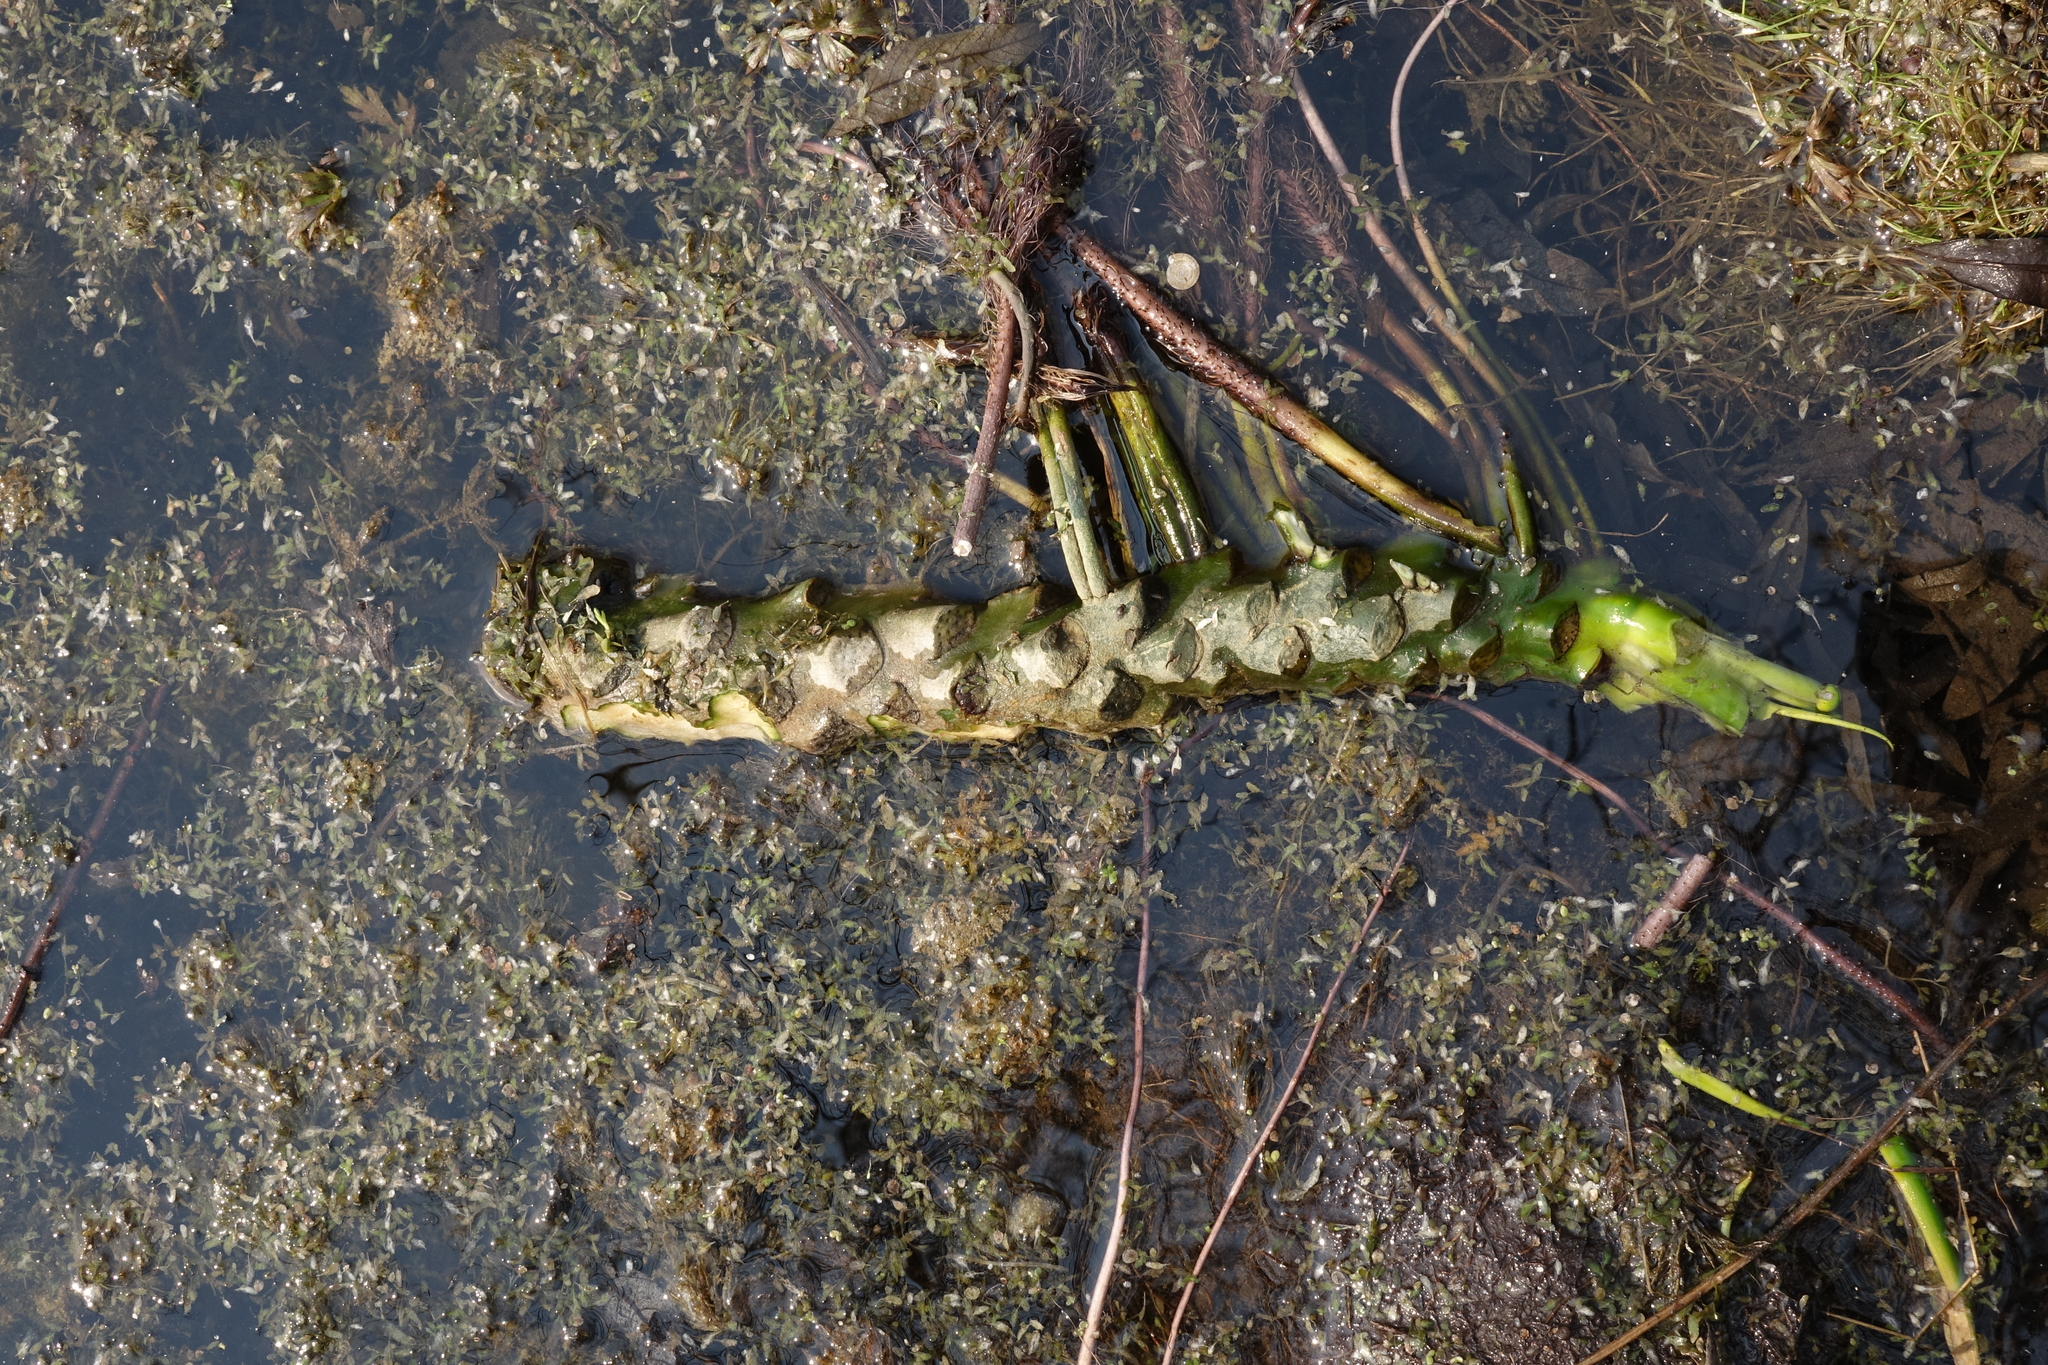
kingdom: Plantae
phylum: Tracheophyta
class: Magnoliopsida
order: Nymphaeales
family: Nymphaeaceae
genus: Nuphar
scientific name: Nuphar lutea
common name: Yellow water-lily
